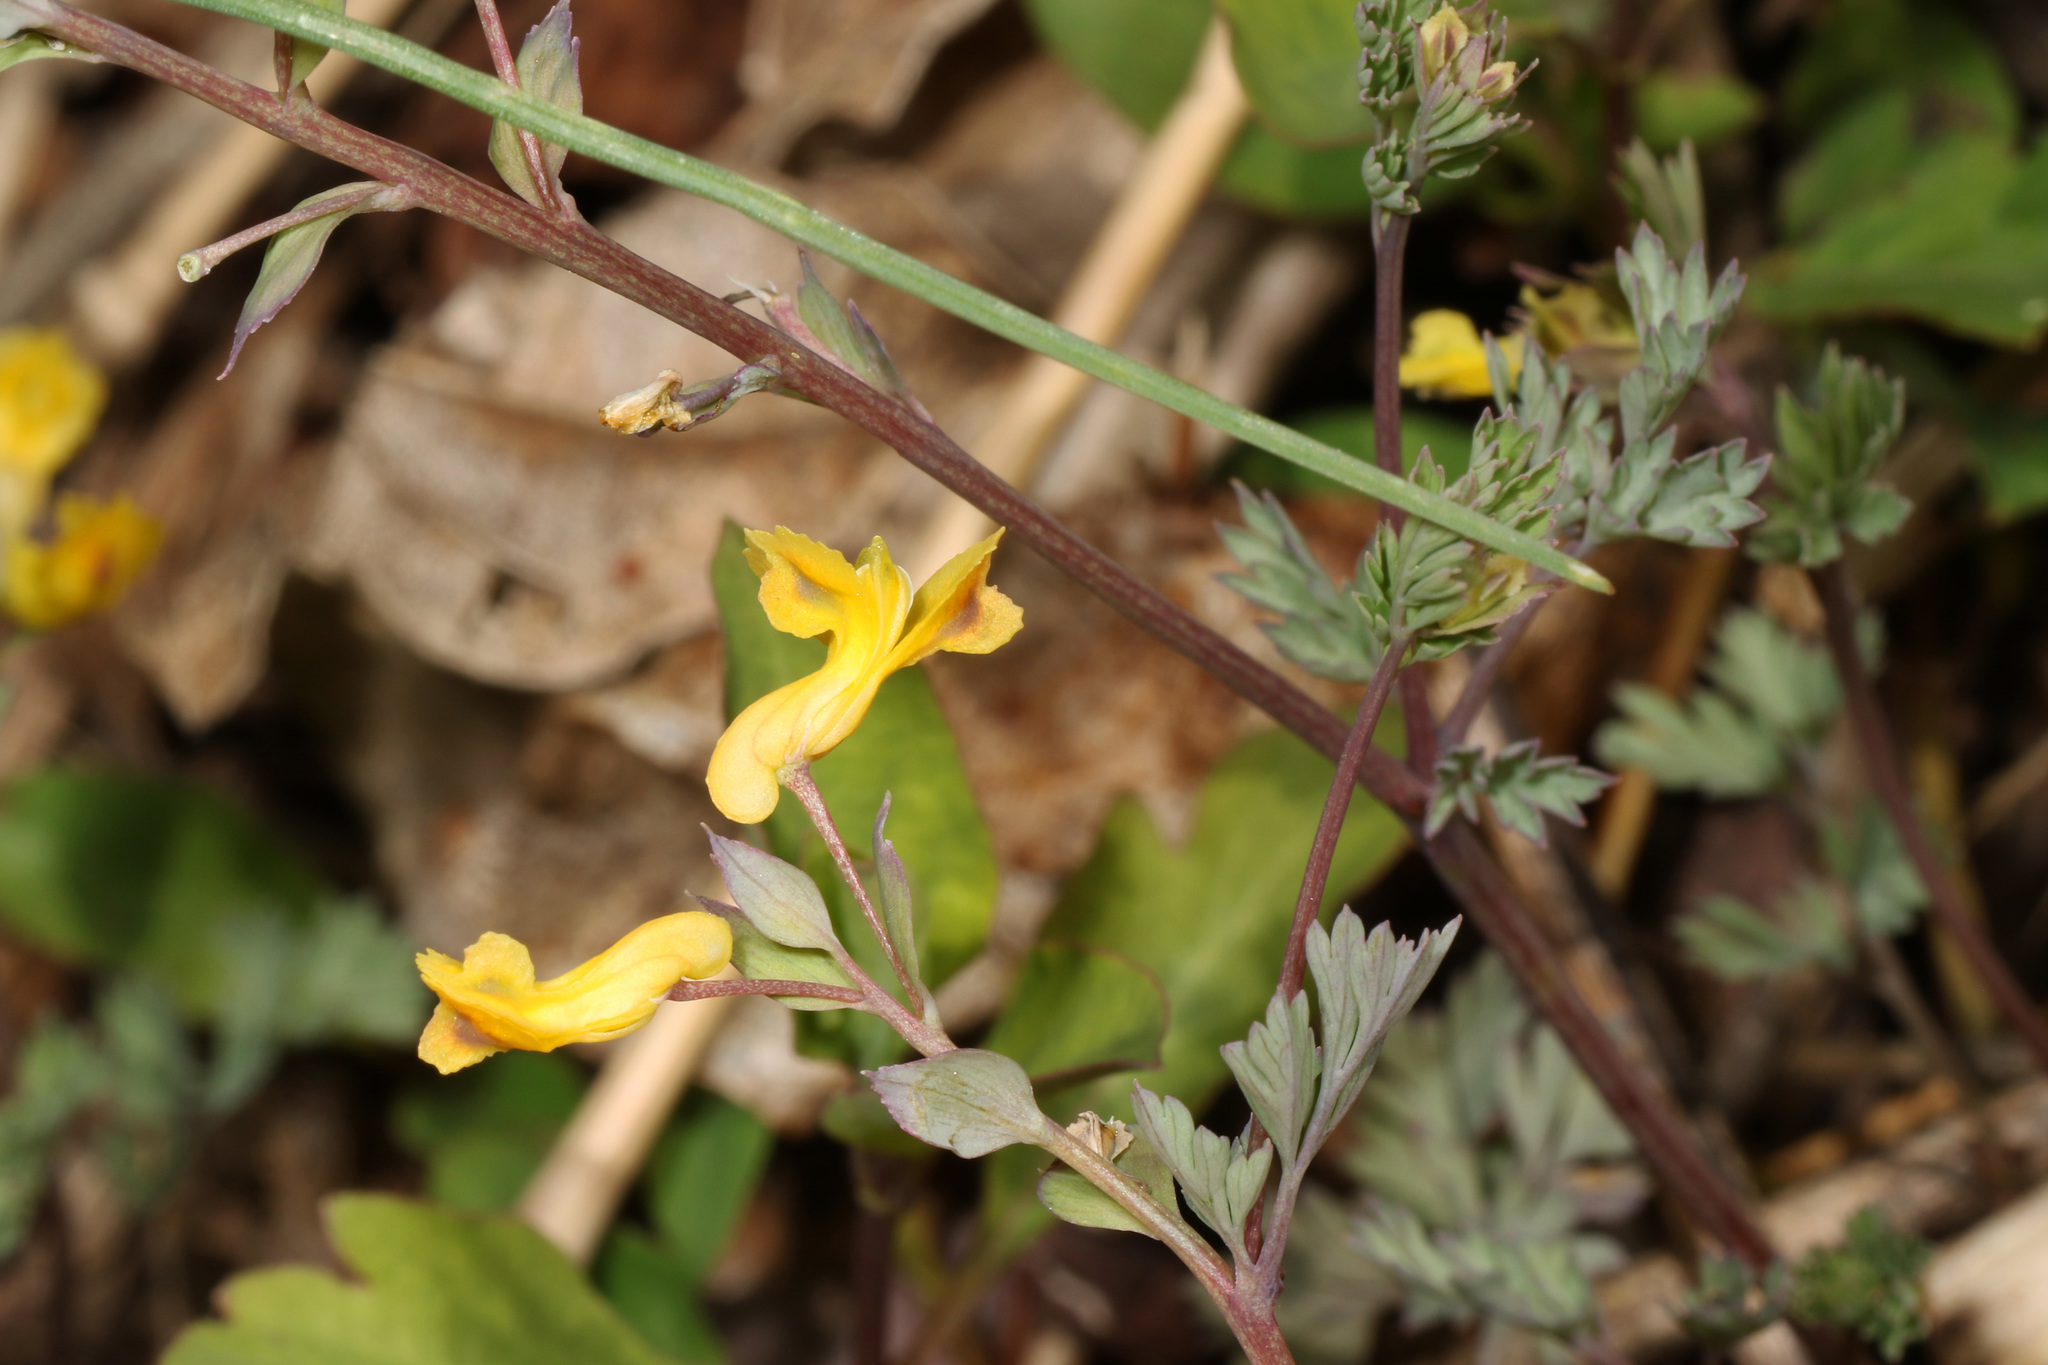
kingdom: Plantae
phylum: Tracheophyta
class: Magnoliopsida
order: Ranunculales
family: Papaveraceae
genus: Corydalis
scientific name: Corydalis flavula
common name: Yellow corydalis
